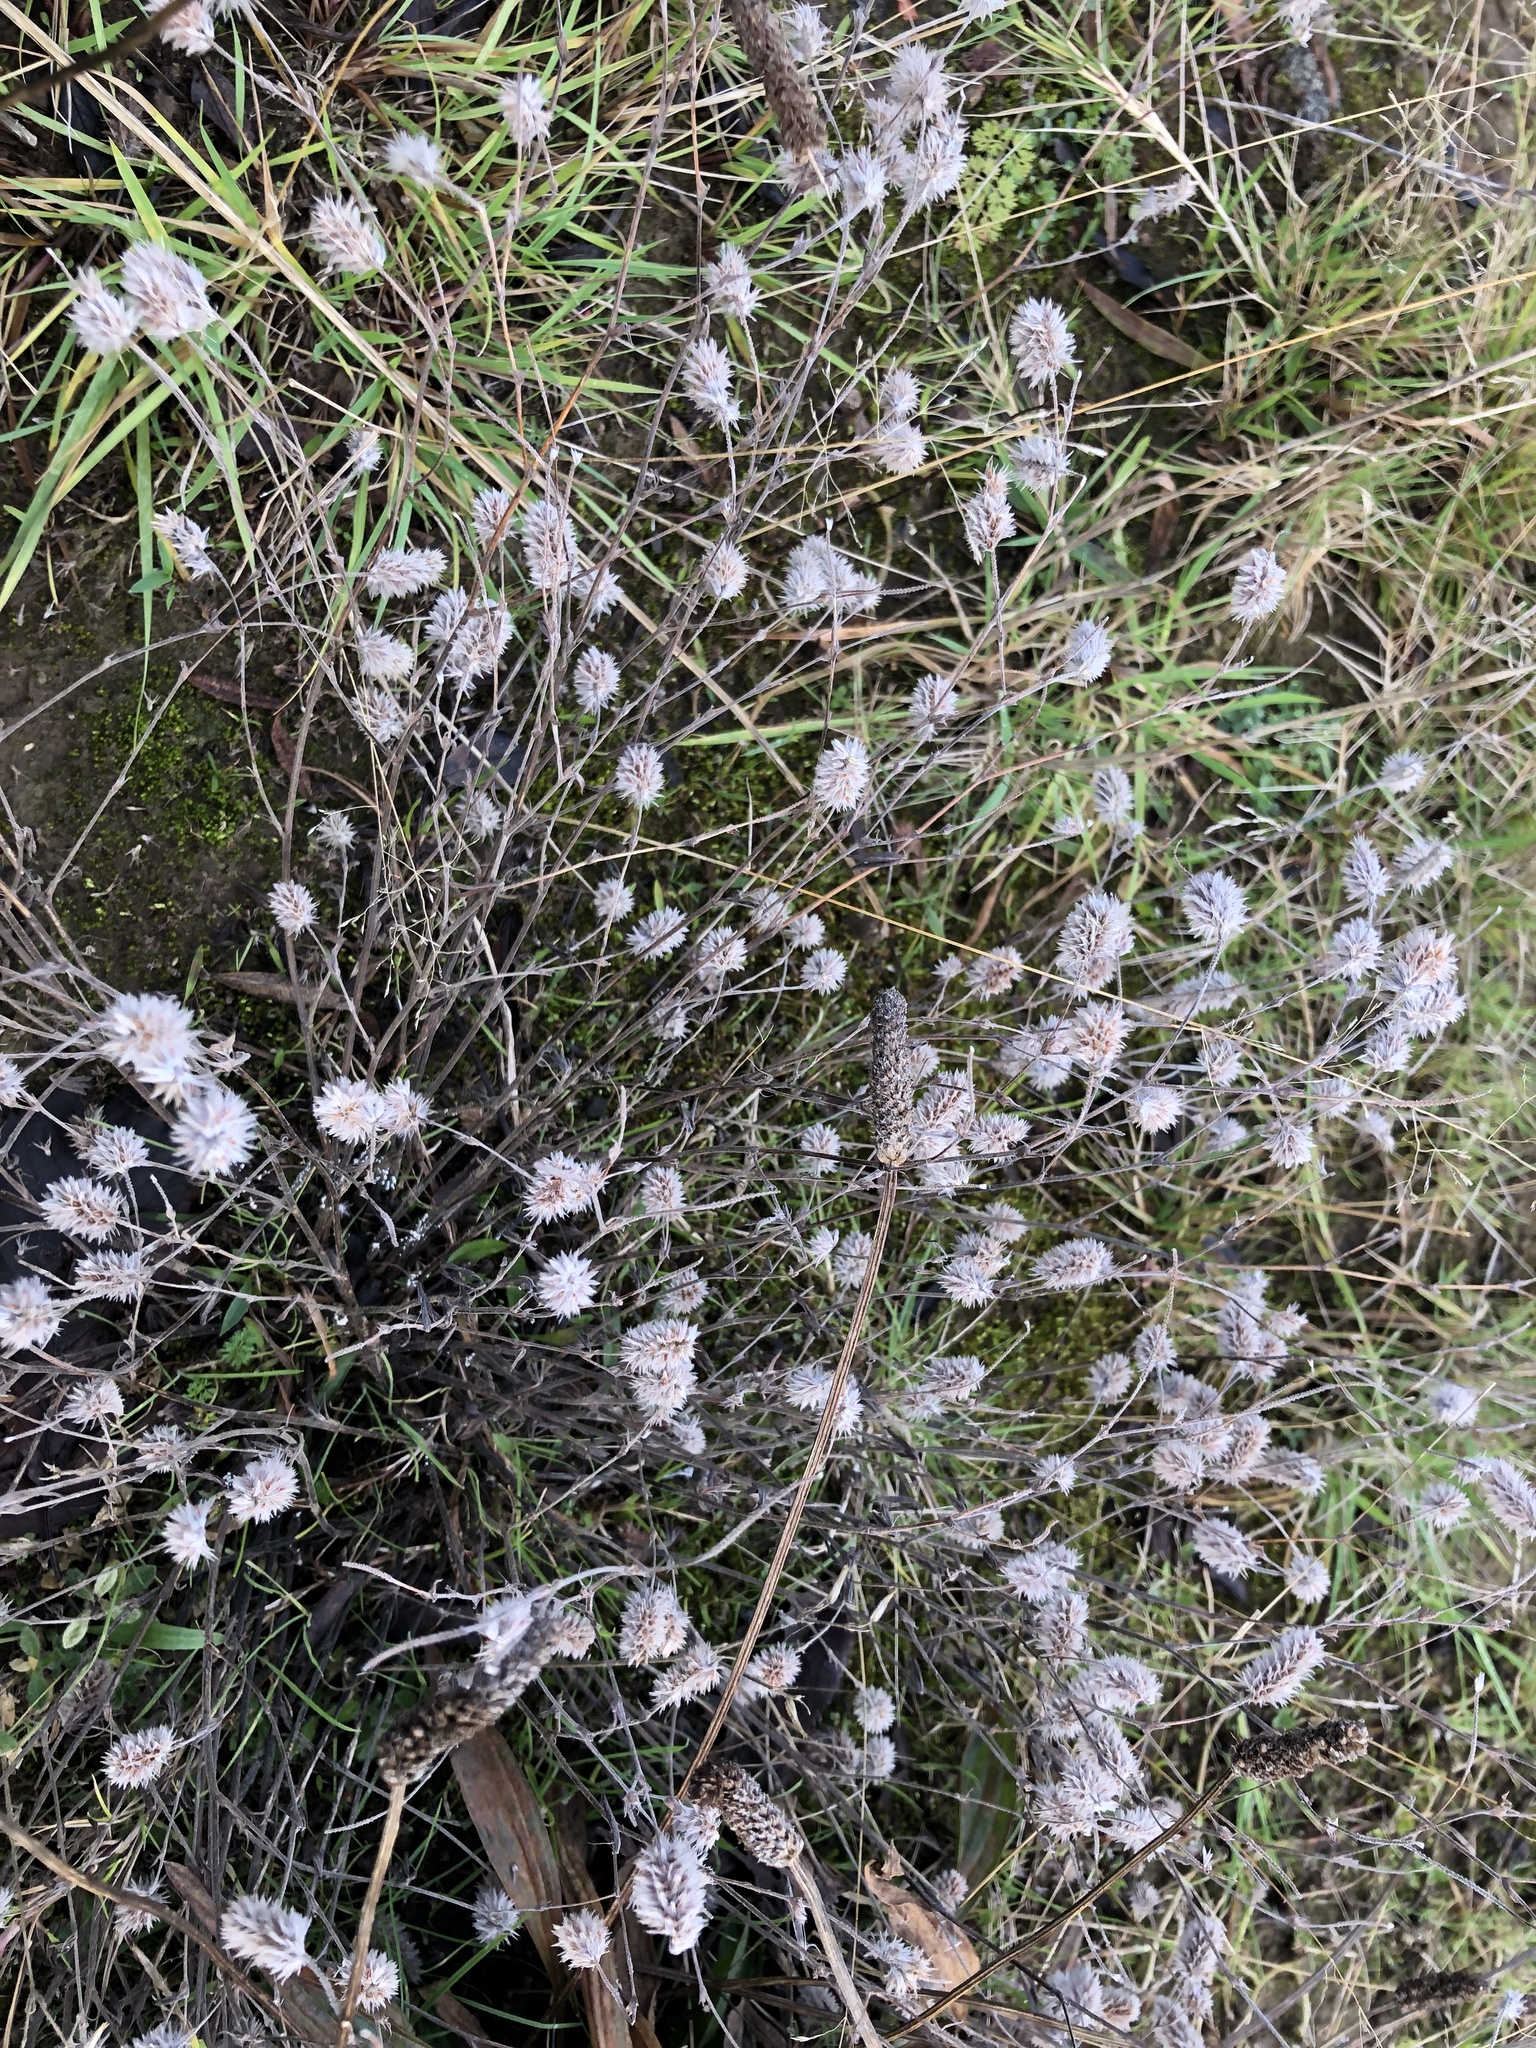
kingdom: Plantae
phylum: Tracheophyta
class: Magnoliopsida
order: Fabales
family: Fabaceae
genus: Trifolium
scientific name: Trifolium arvense
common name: Hare's-foot clover
